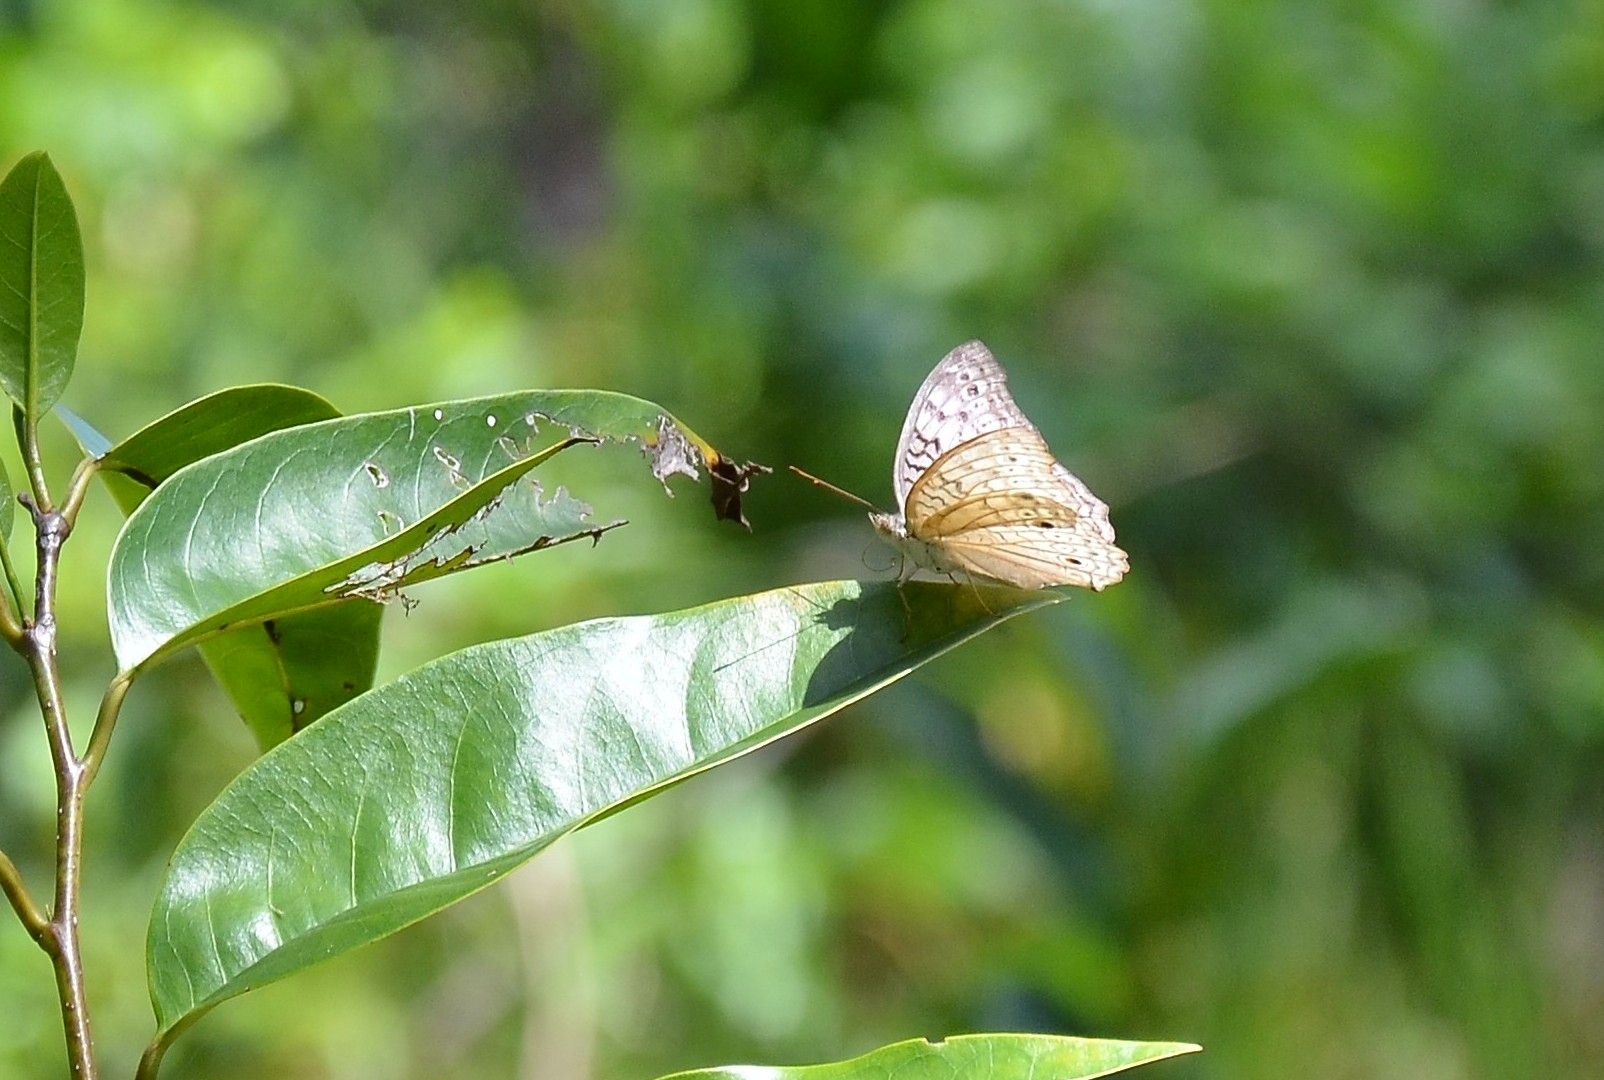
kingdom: Animalia
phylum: Arthropoda
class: Insecta
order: Lepidoptera
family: Nymphalidae
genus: Junonia
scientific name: Junonia atlites
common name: Grey pansy
